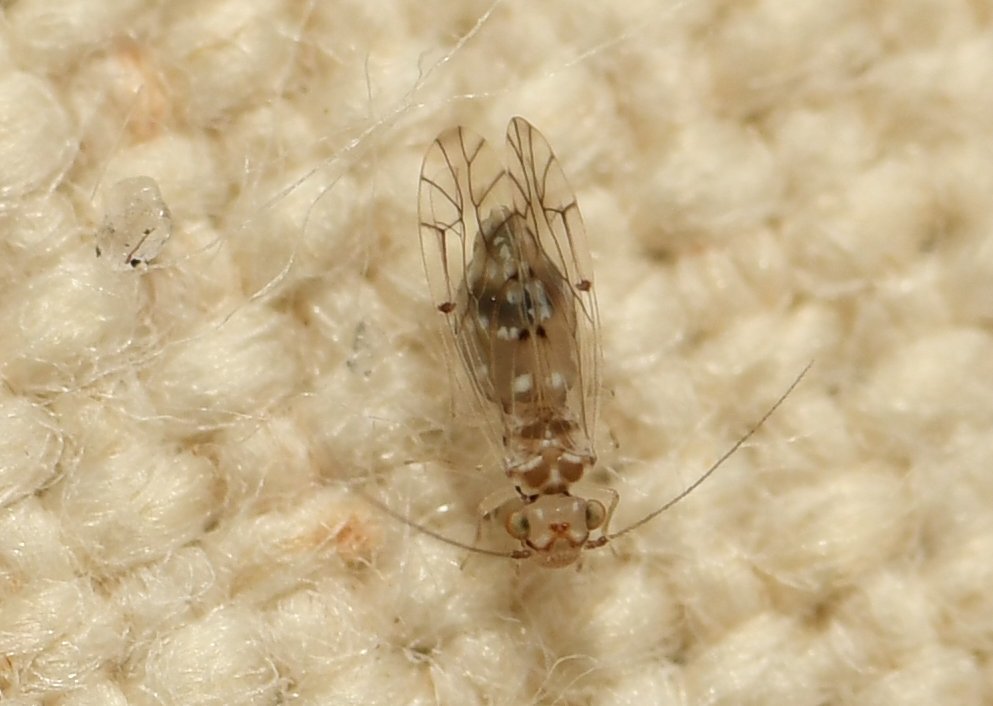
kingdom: Animalia
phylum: Arthropoda
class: Insecta
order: Psocodea
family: Lachesillidae
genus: Lachesilla
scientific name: Lachesilla floridana
